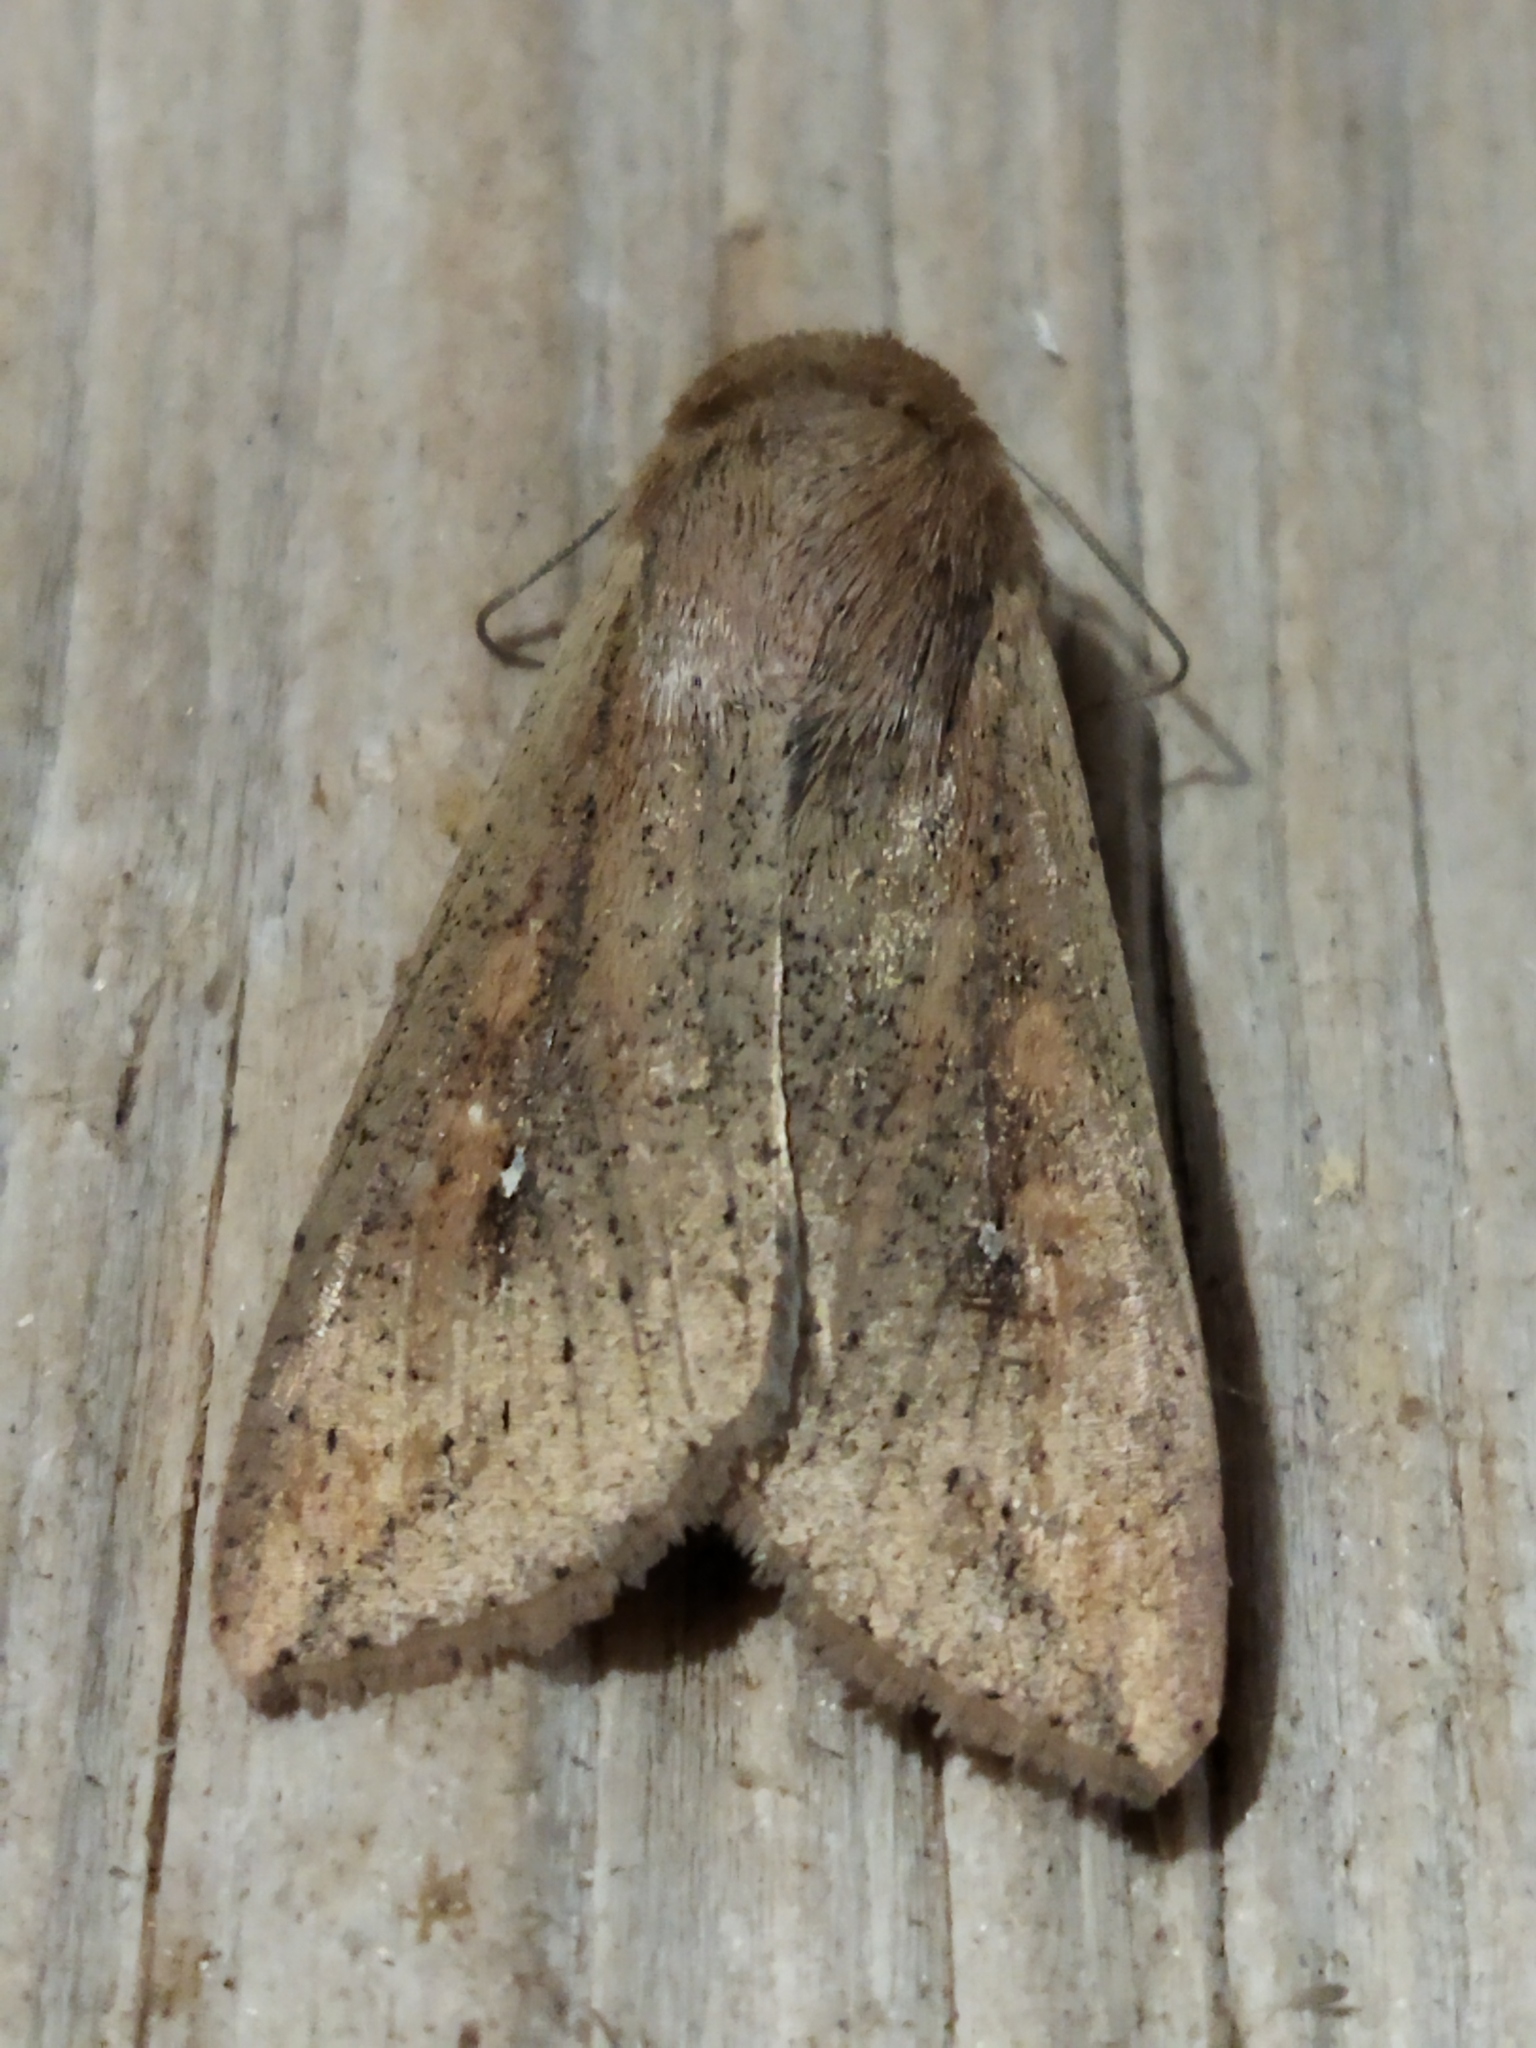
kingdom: Animalia
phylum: Arthropoda
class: Insecta
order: Lepidoptera
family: Noctuidae
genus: Mythimna
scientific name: Mythimna unipuncta
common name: White-speck
